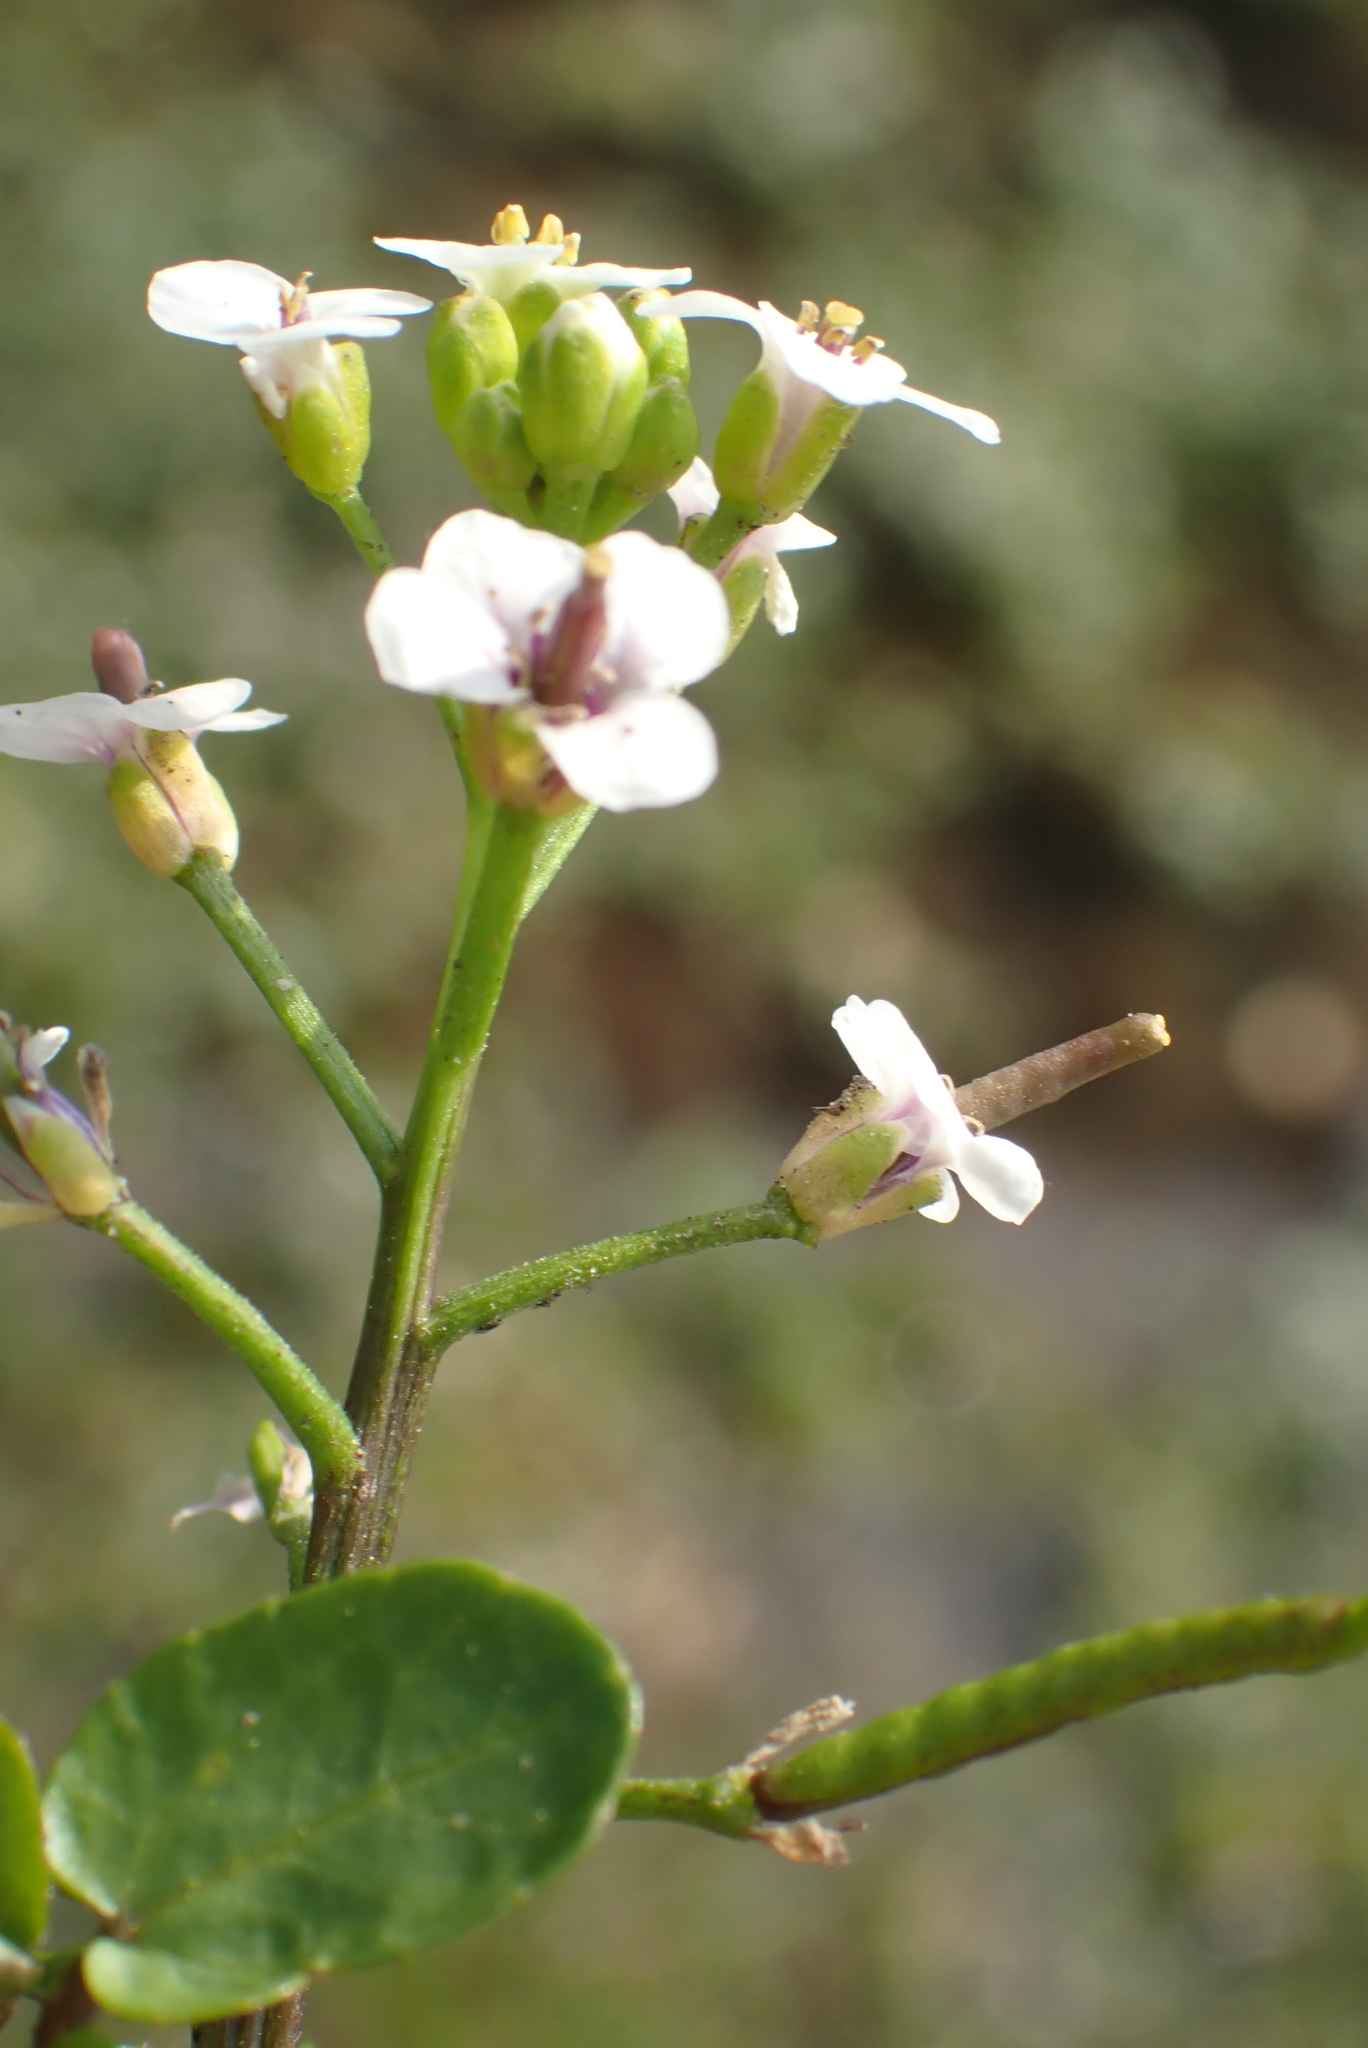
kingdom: Plantae
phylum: Tracheophyta
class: Magnoliopsida
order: Brassicales
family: Brassicaceae
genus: Nasturtium
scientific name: Nasturtium officinale
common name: Watercress
